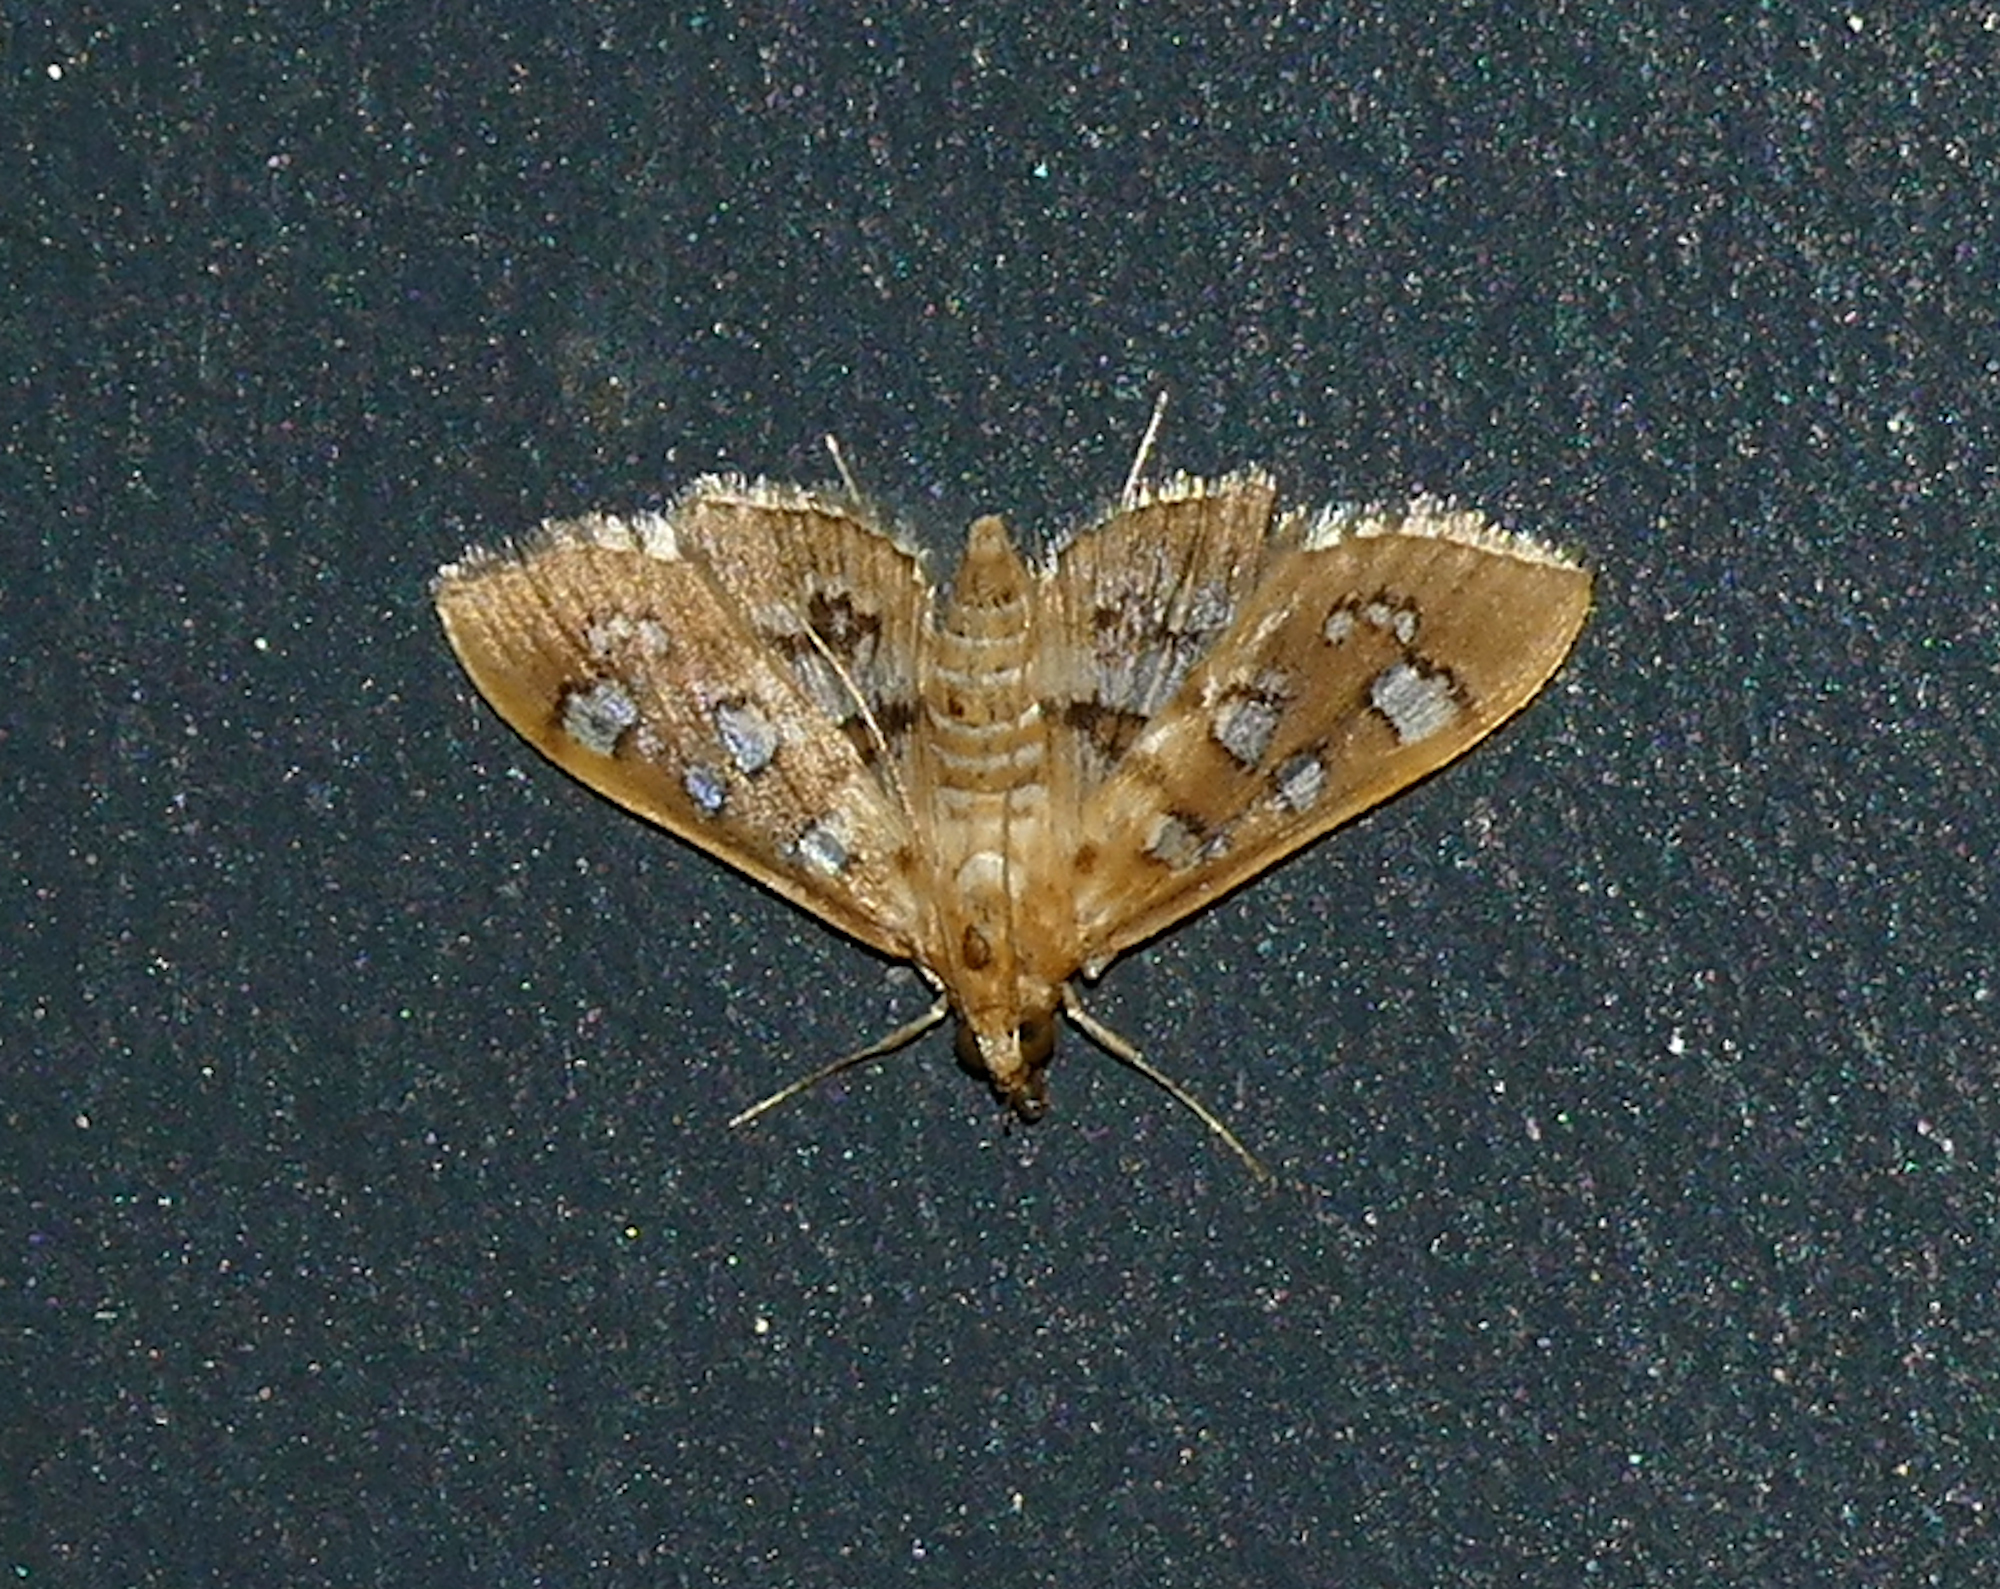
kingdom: Animalia
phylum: Arthropoda
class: Insecta
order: Lepidoptera
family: Crambidae
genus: Samea
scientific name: Samea baccatalis
